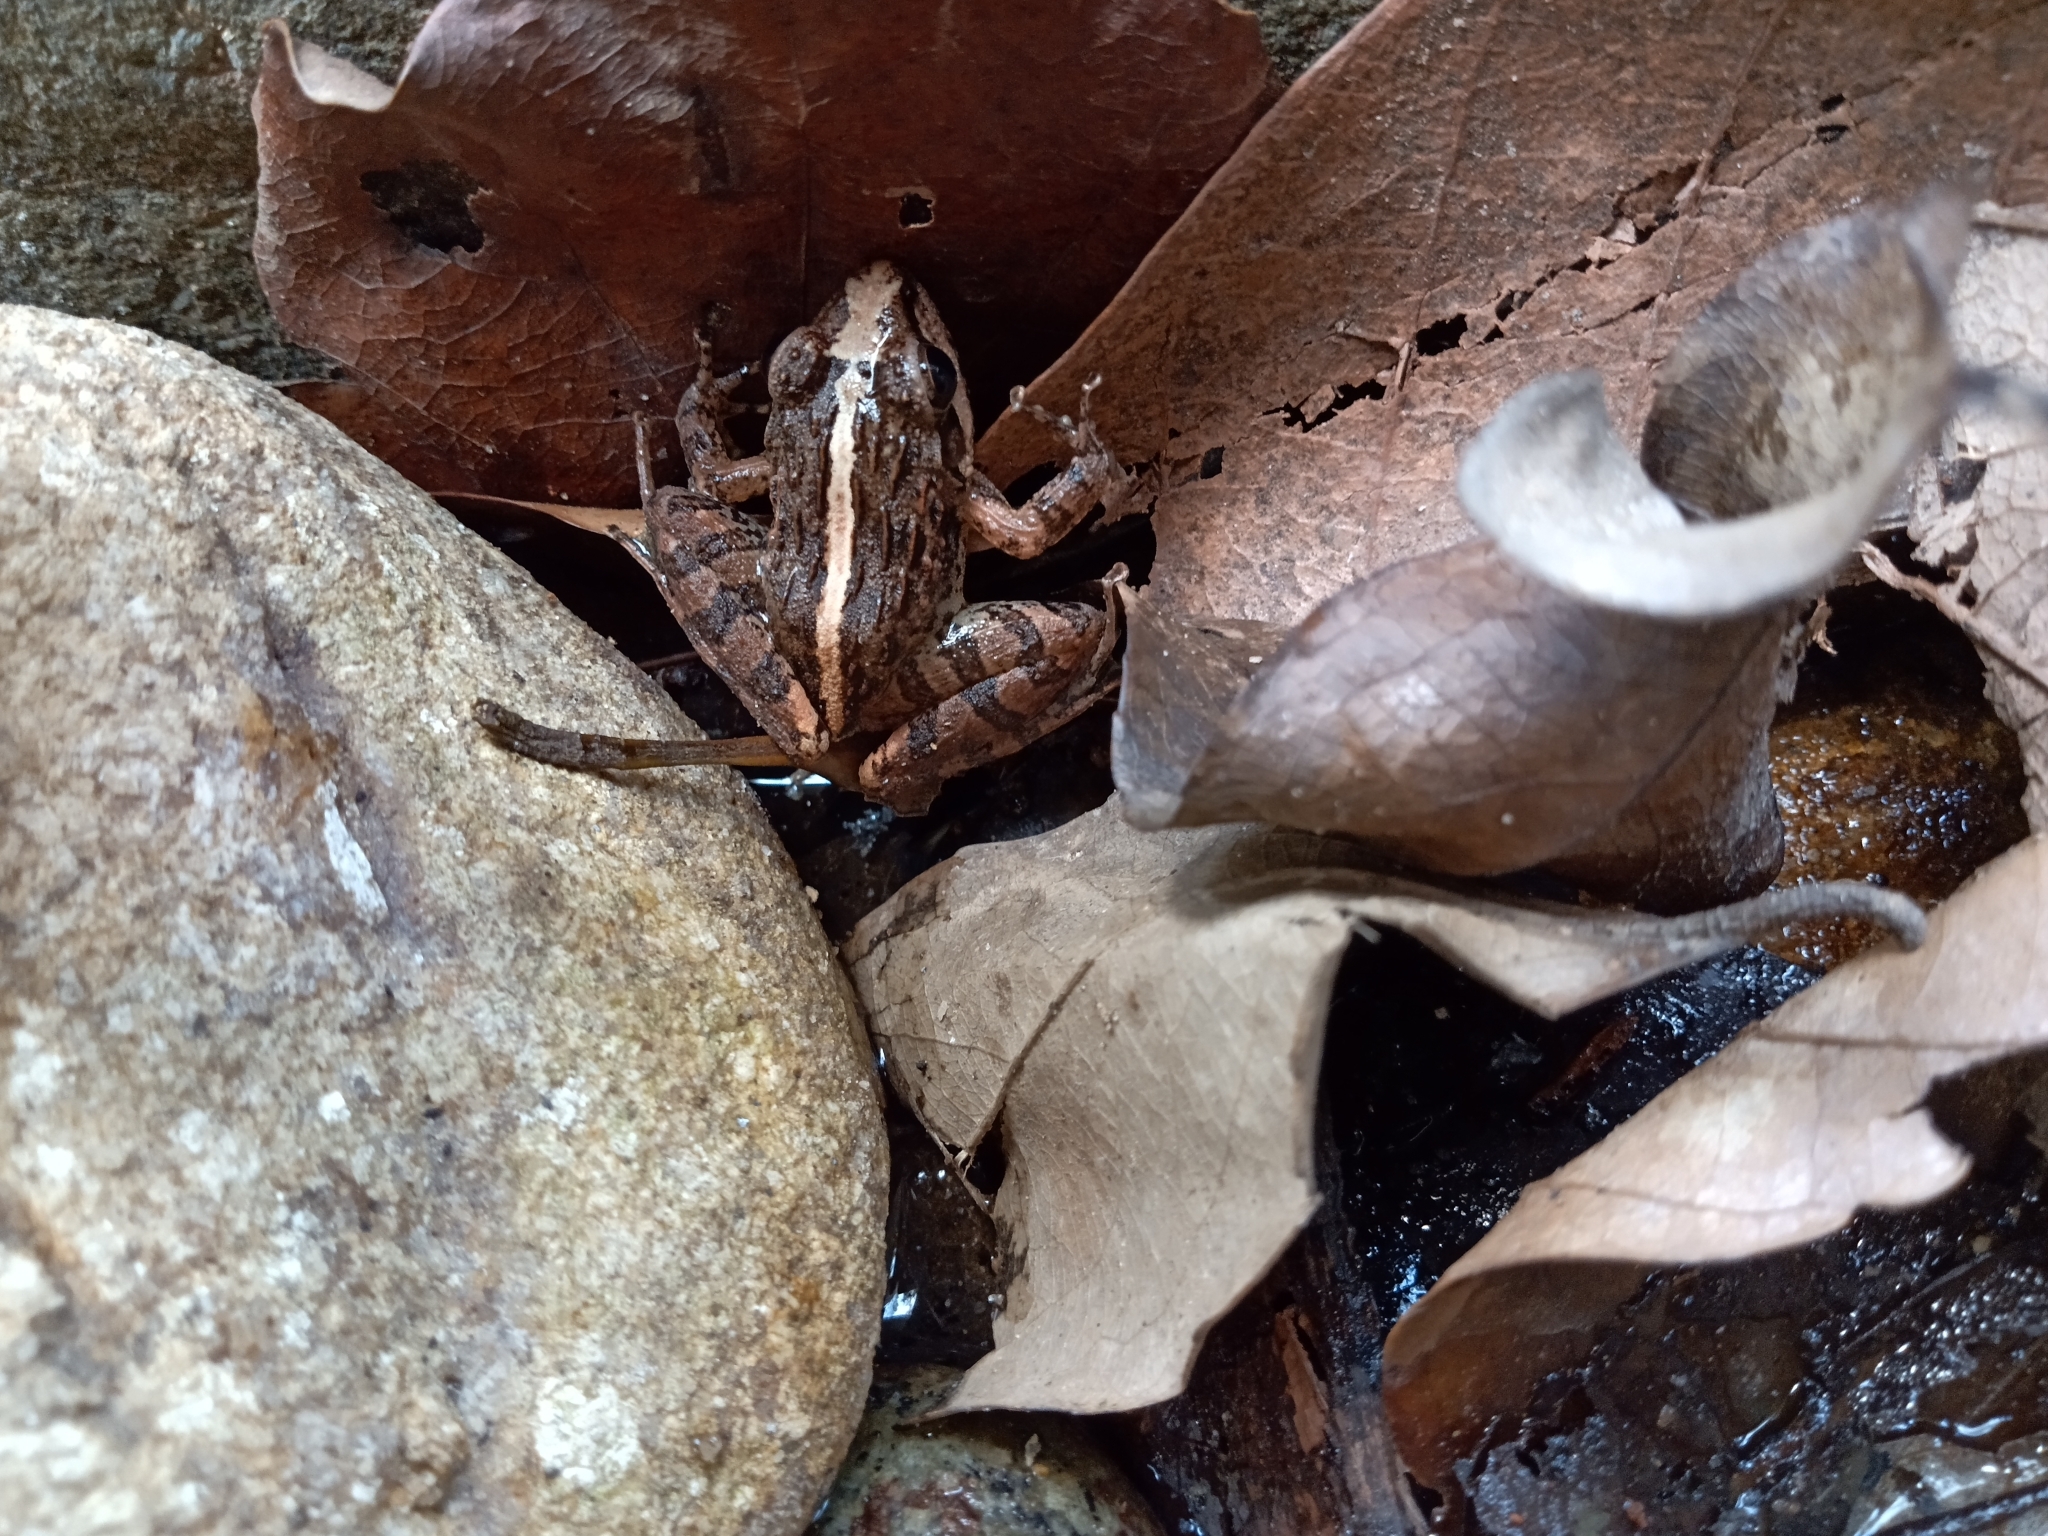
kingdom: Animalia
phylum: Chordata
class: Amphibia
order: Anura
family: Ranixalidae
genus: Indirana
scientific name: Indirana brachytarsus
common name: Günther's leaping frog
